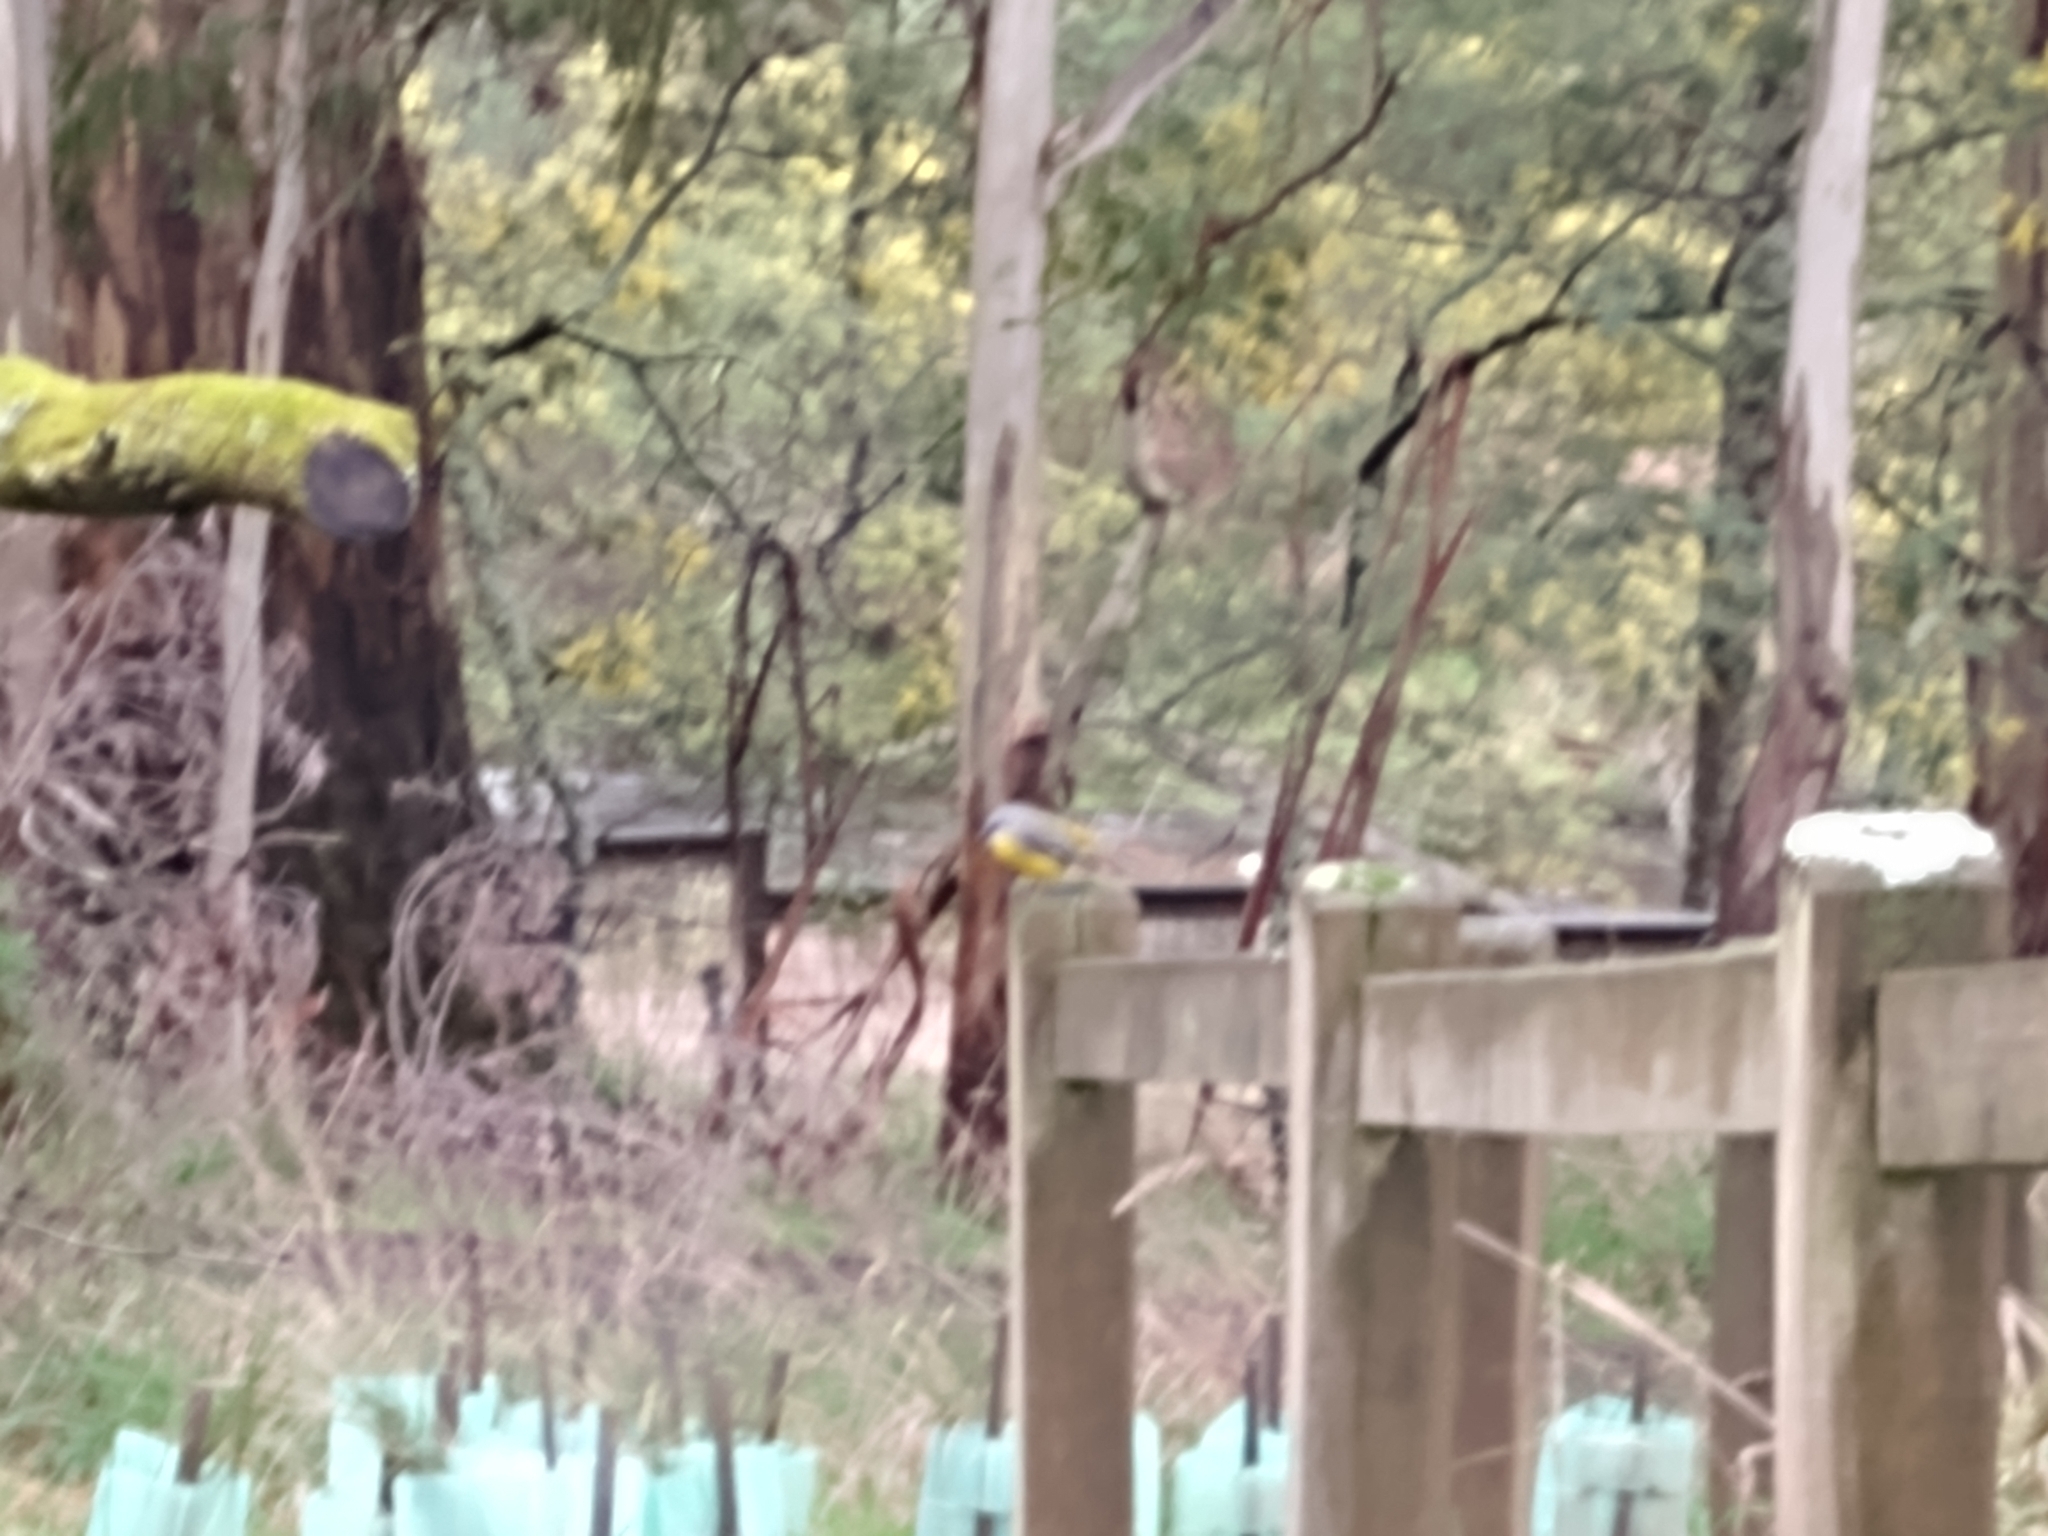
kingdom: Animalia
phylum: Chordata
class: Aves
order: Passeriformes
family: Petroicidae
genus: Eopsaltria
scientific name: Eopsaltria australis
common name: Eastern yellow robin
